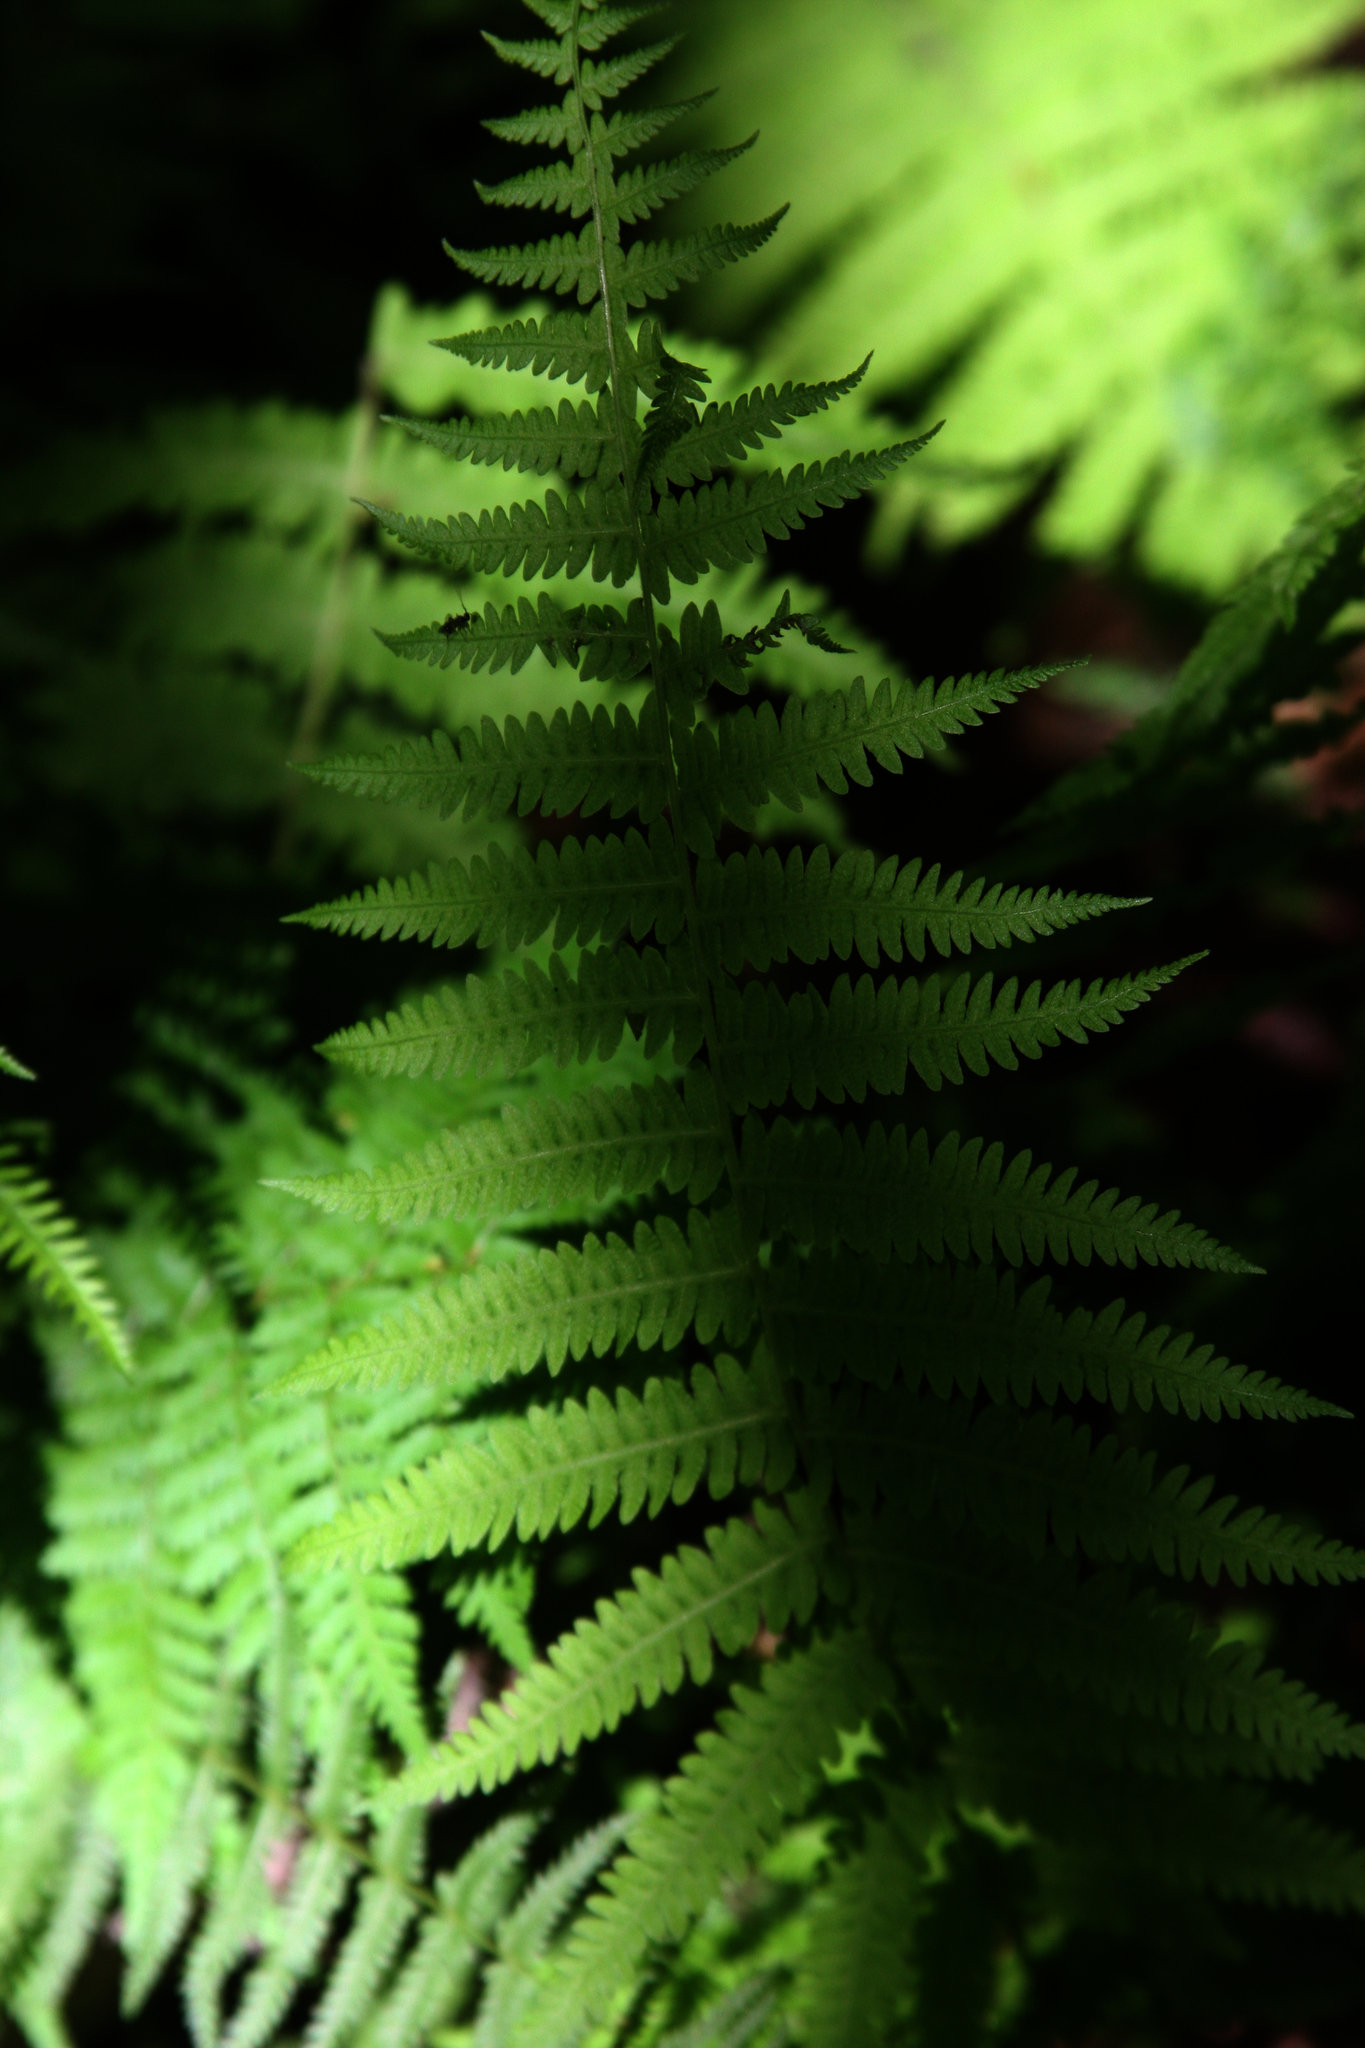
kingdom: Plantae
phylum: Tracheophyta
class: Polypodiopsida
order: Polypodiales
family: Thelypteridaceae
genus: Amauropelta
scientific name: Amauropelta noveboracensis
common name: New york fern
